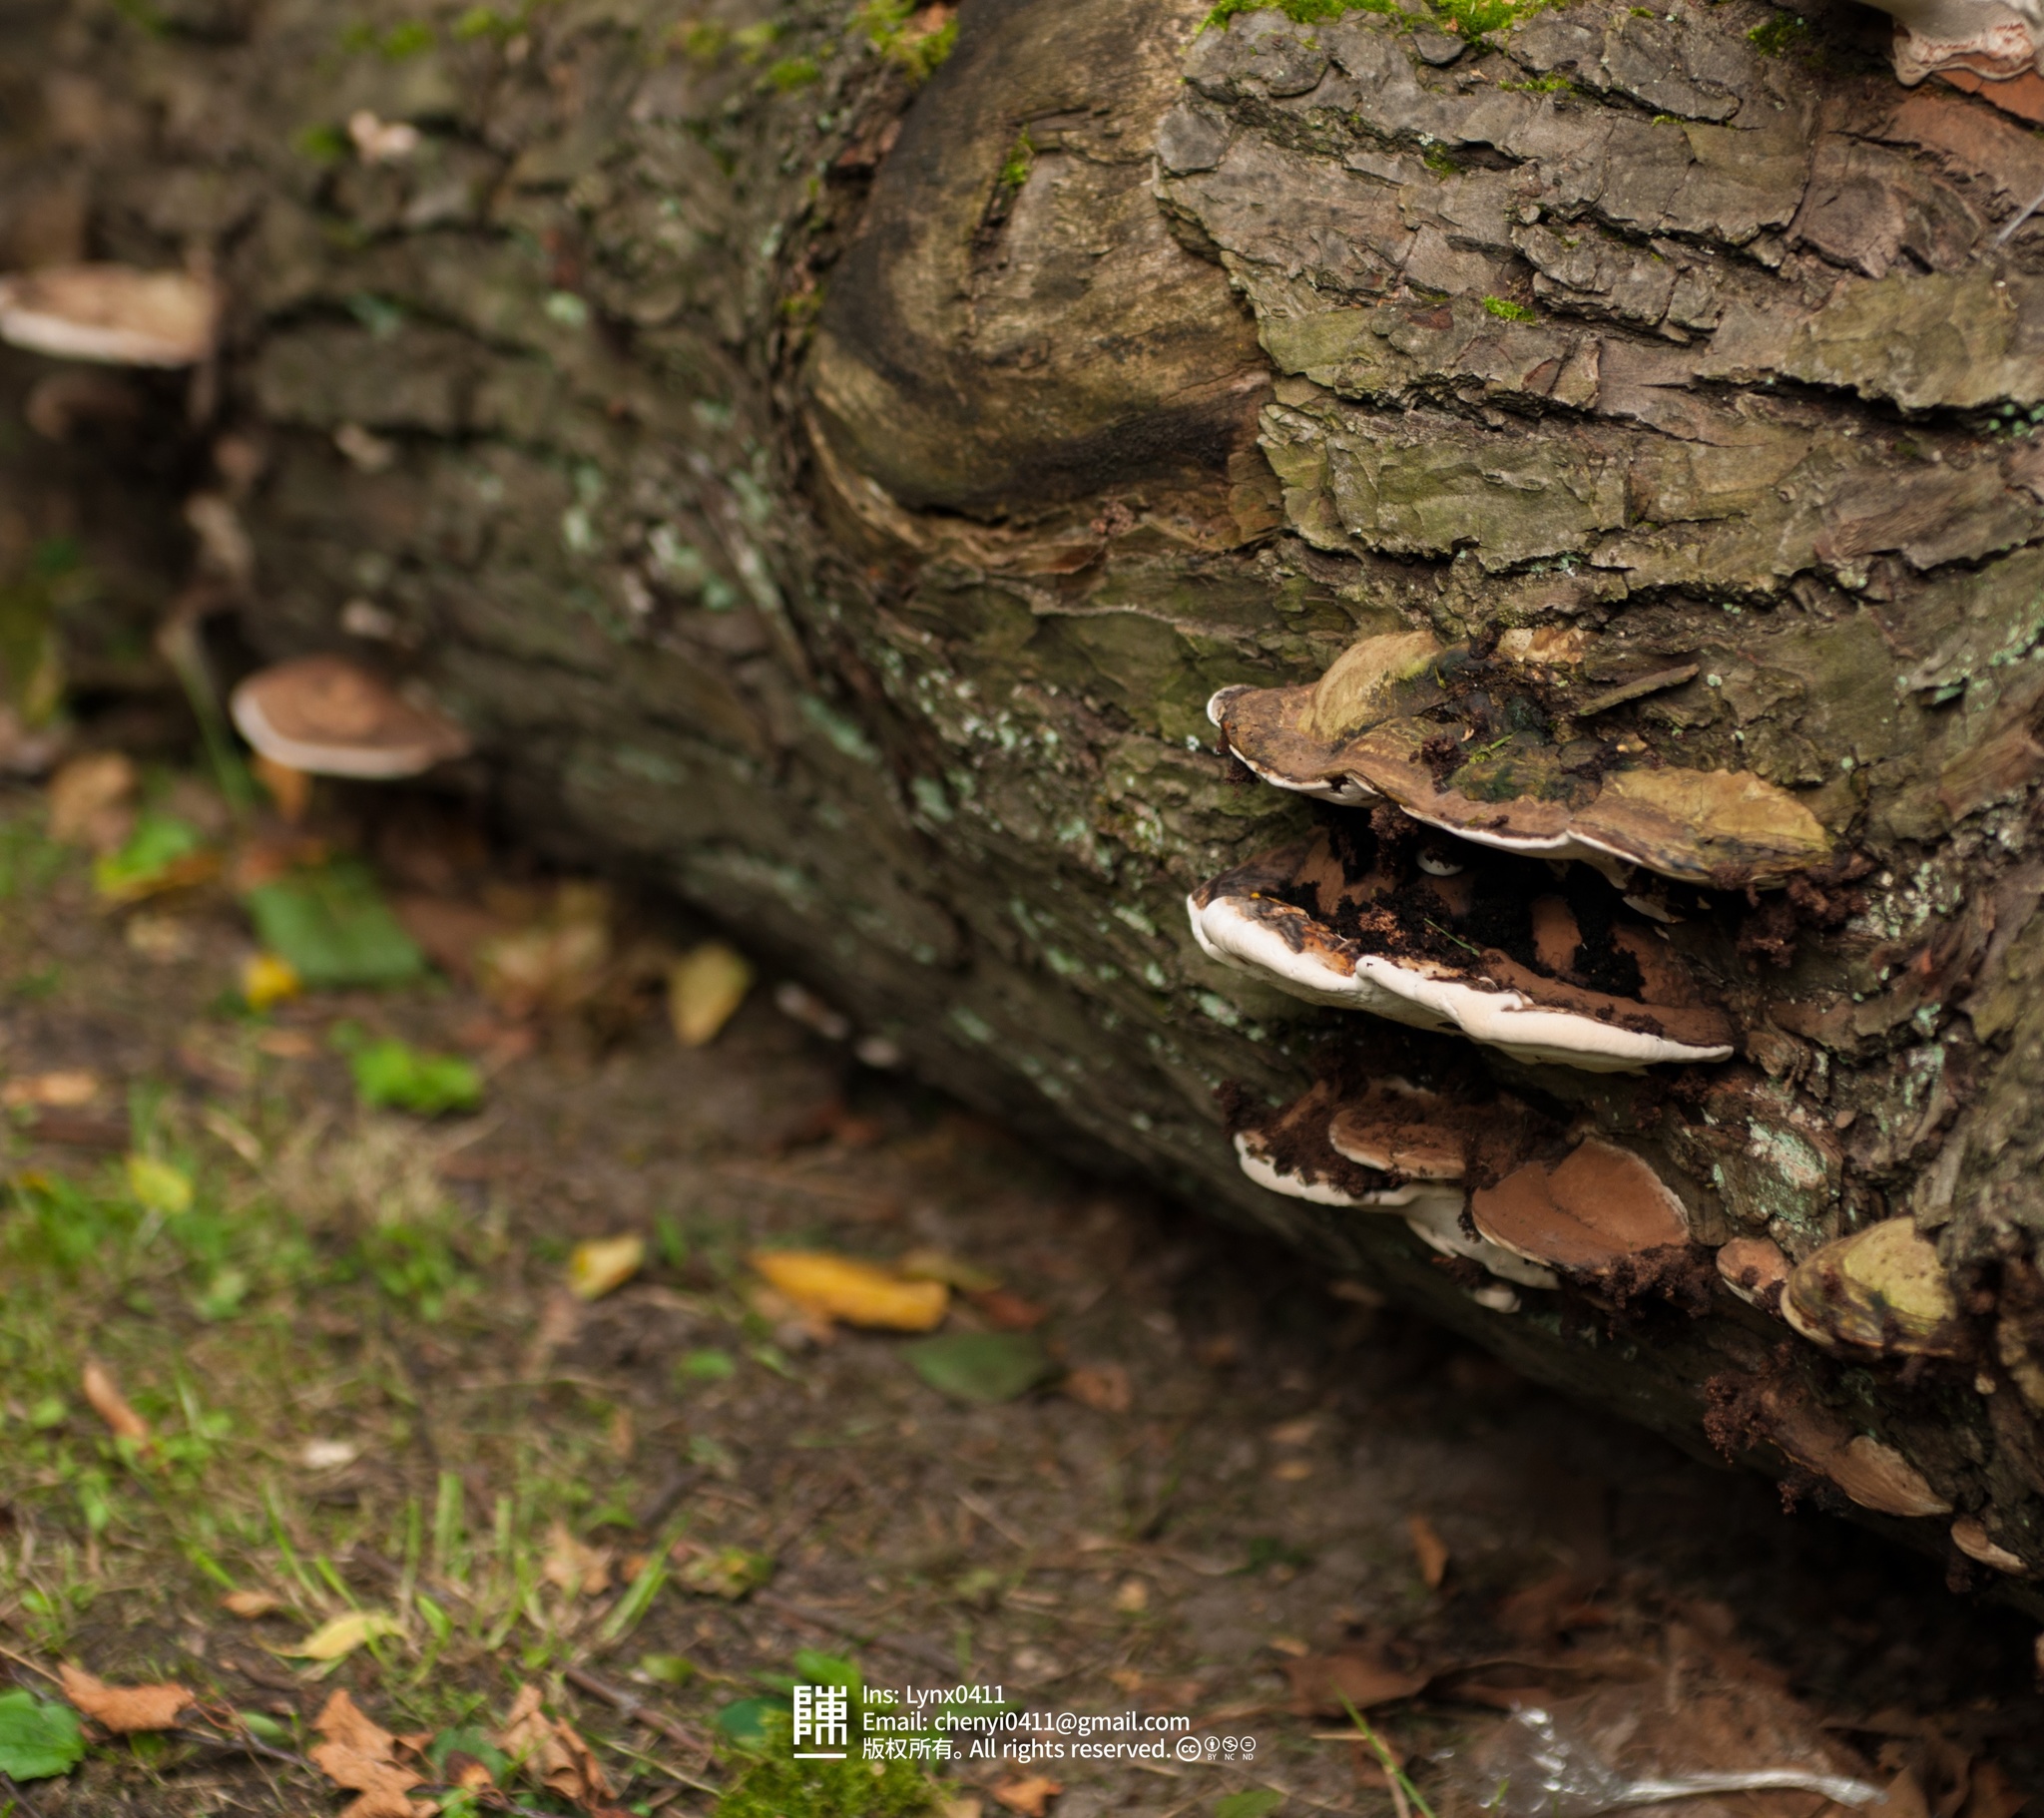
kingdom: Fungi
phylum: Basidiomycota
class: Agaricomycetes
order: Polyporales
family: Polyporaceae
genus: Ganoderma
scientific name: Ganoderma applanatum
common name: Artist's bracket
